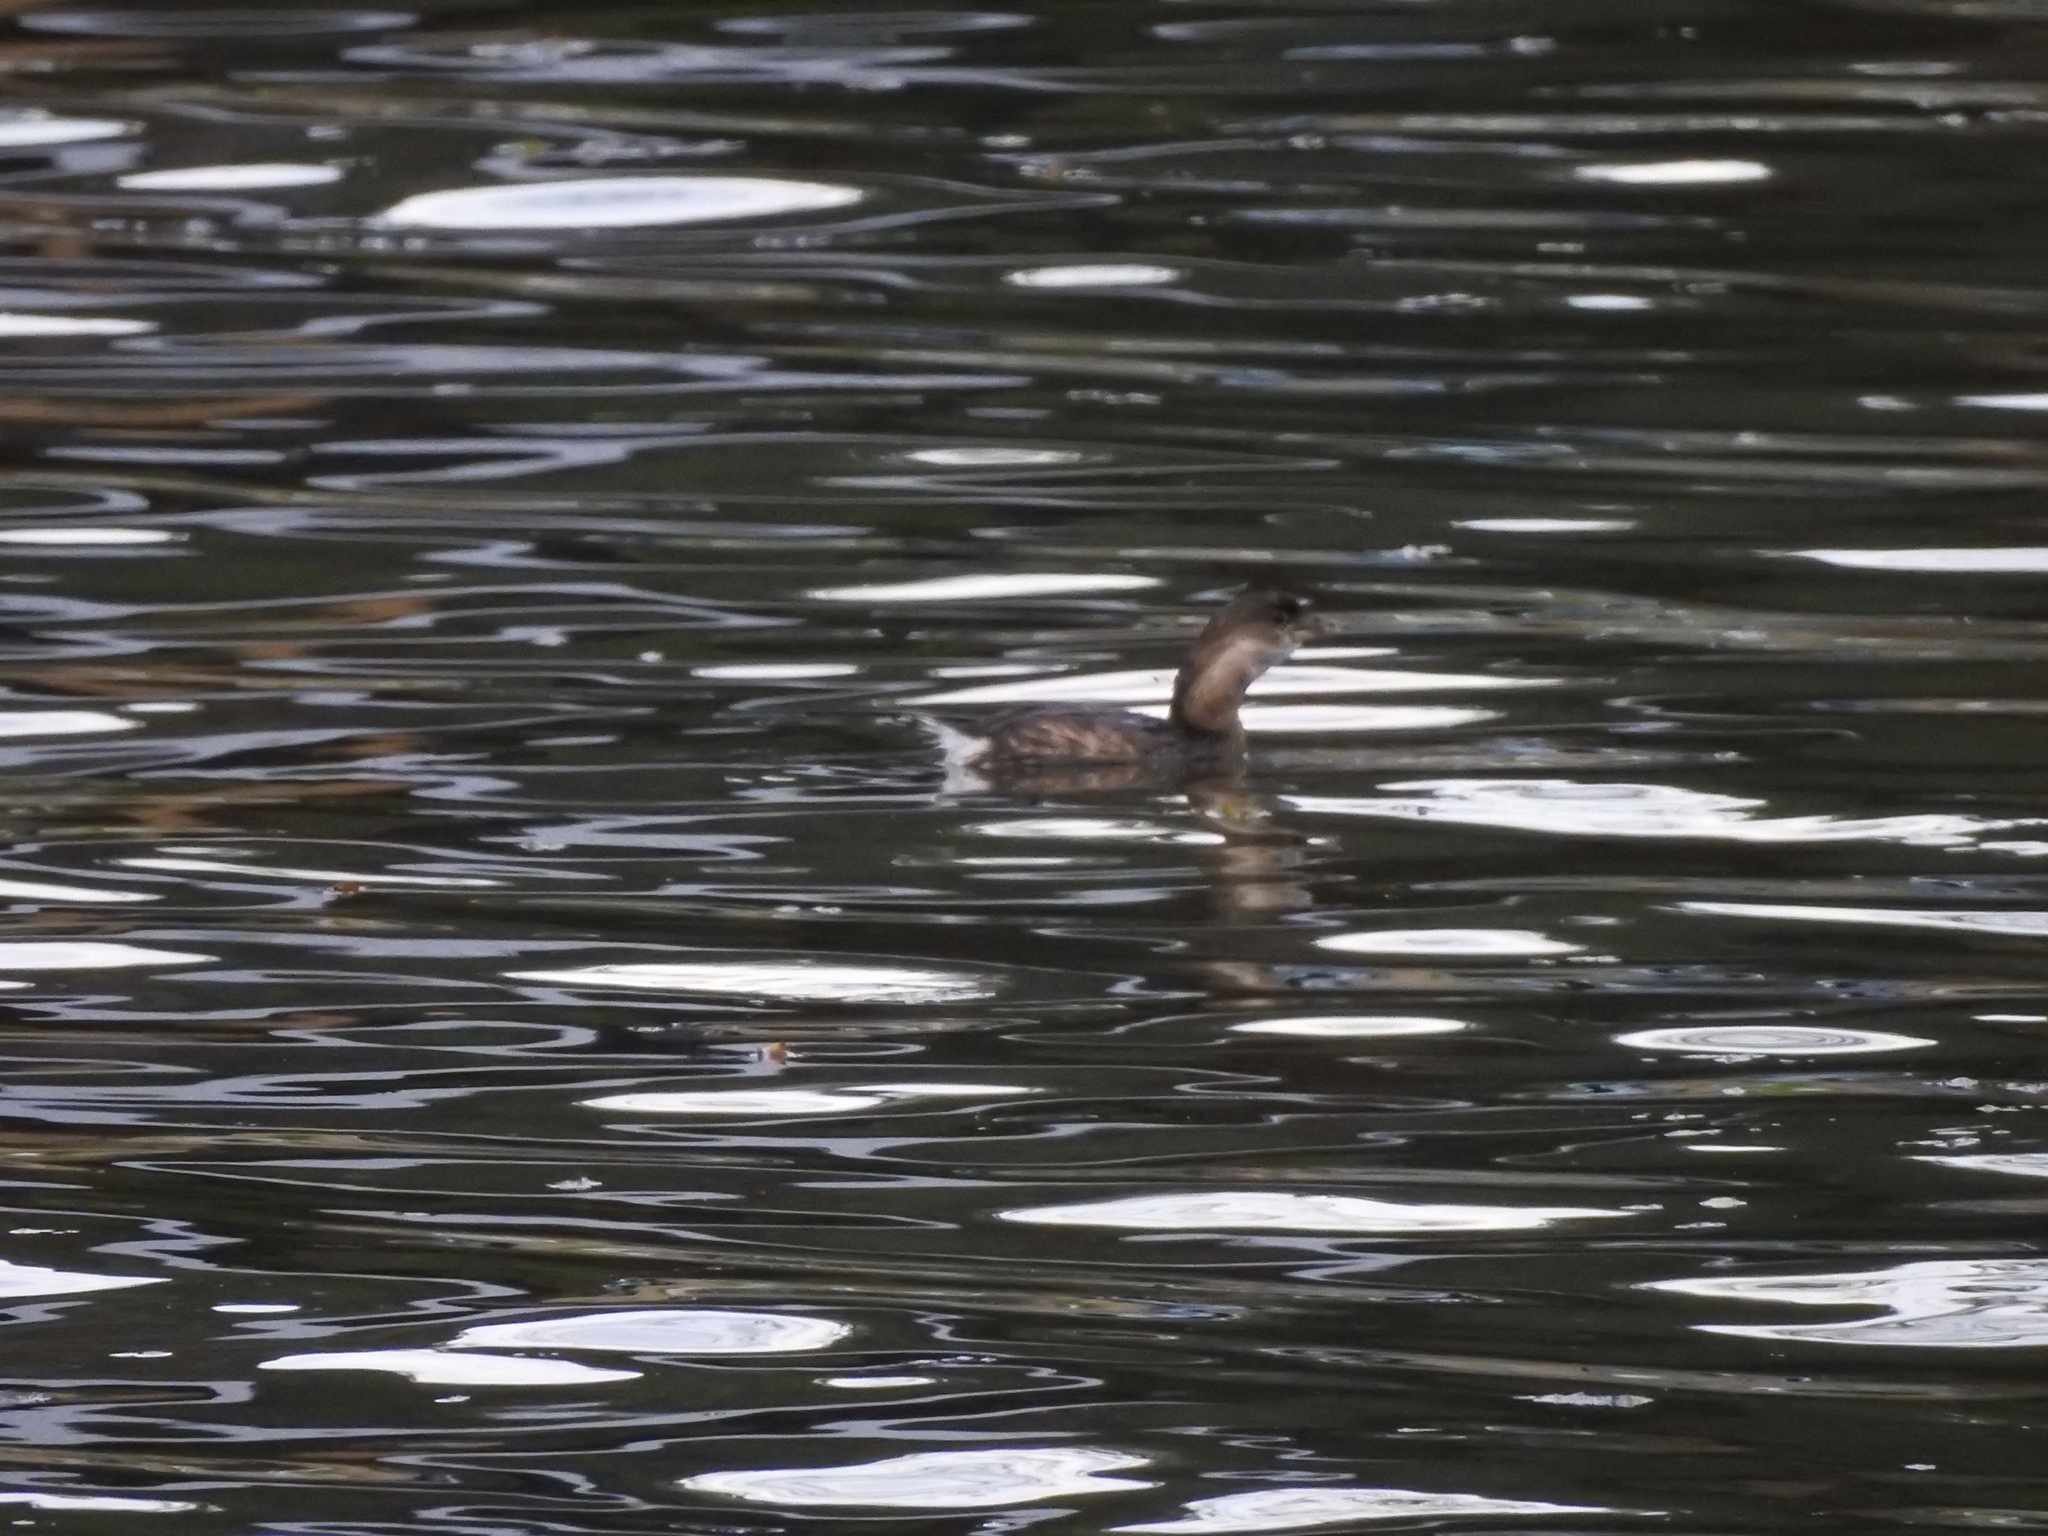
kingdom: Animalia
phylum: Chordata
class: Aves
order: Podicipediformes
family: Podicipedidae
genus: Podilymbus
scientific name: Podilymbus podiceps
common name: Pied-billed grebe
